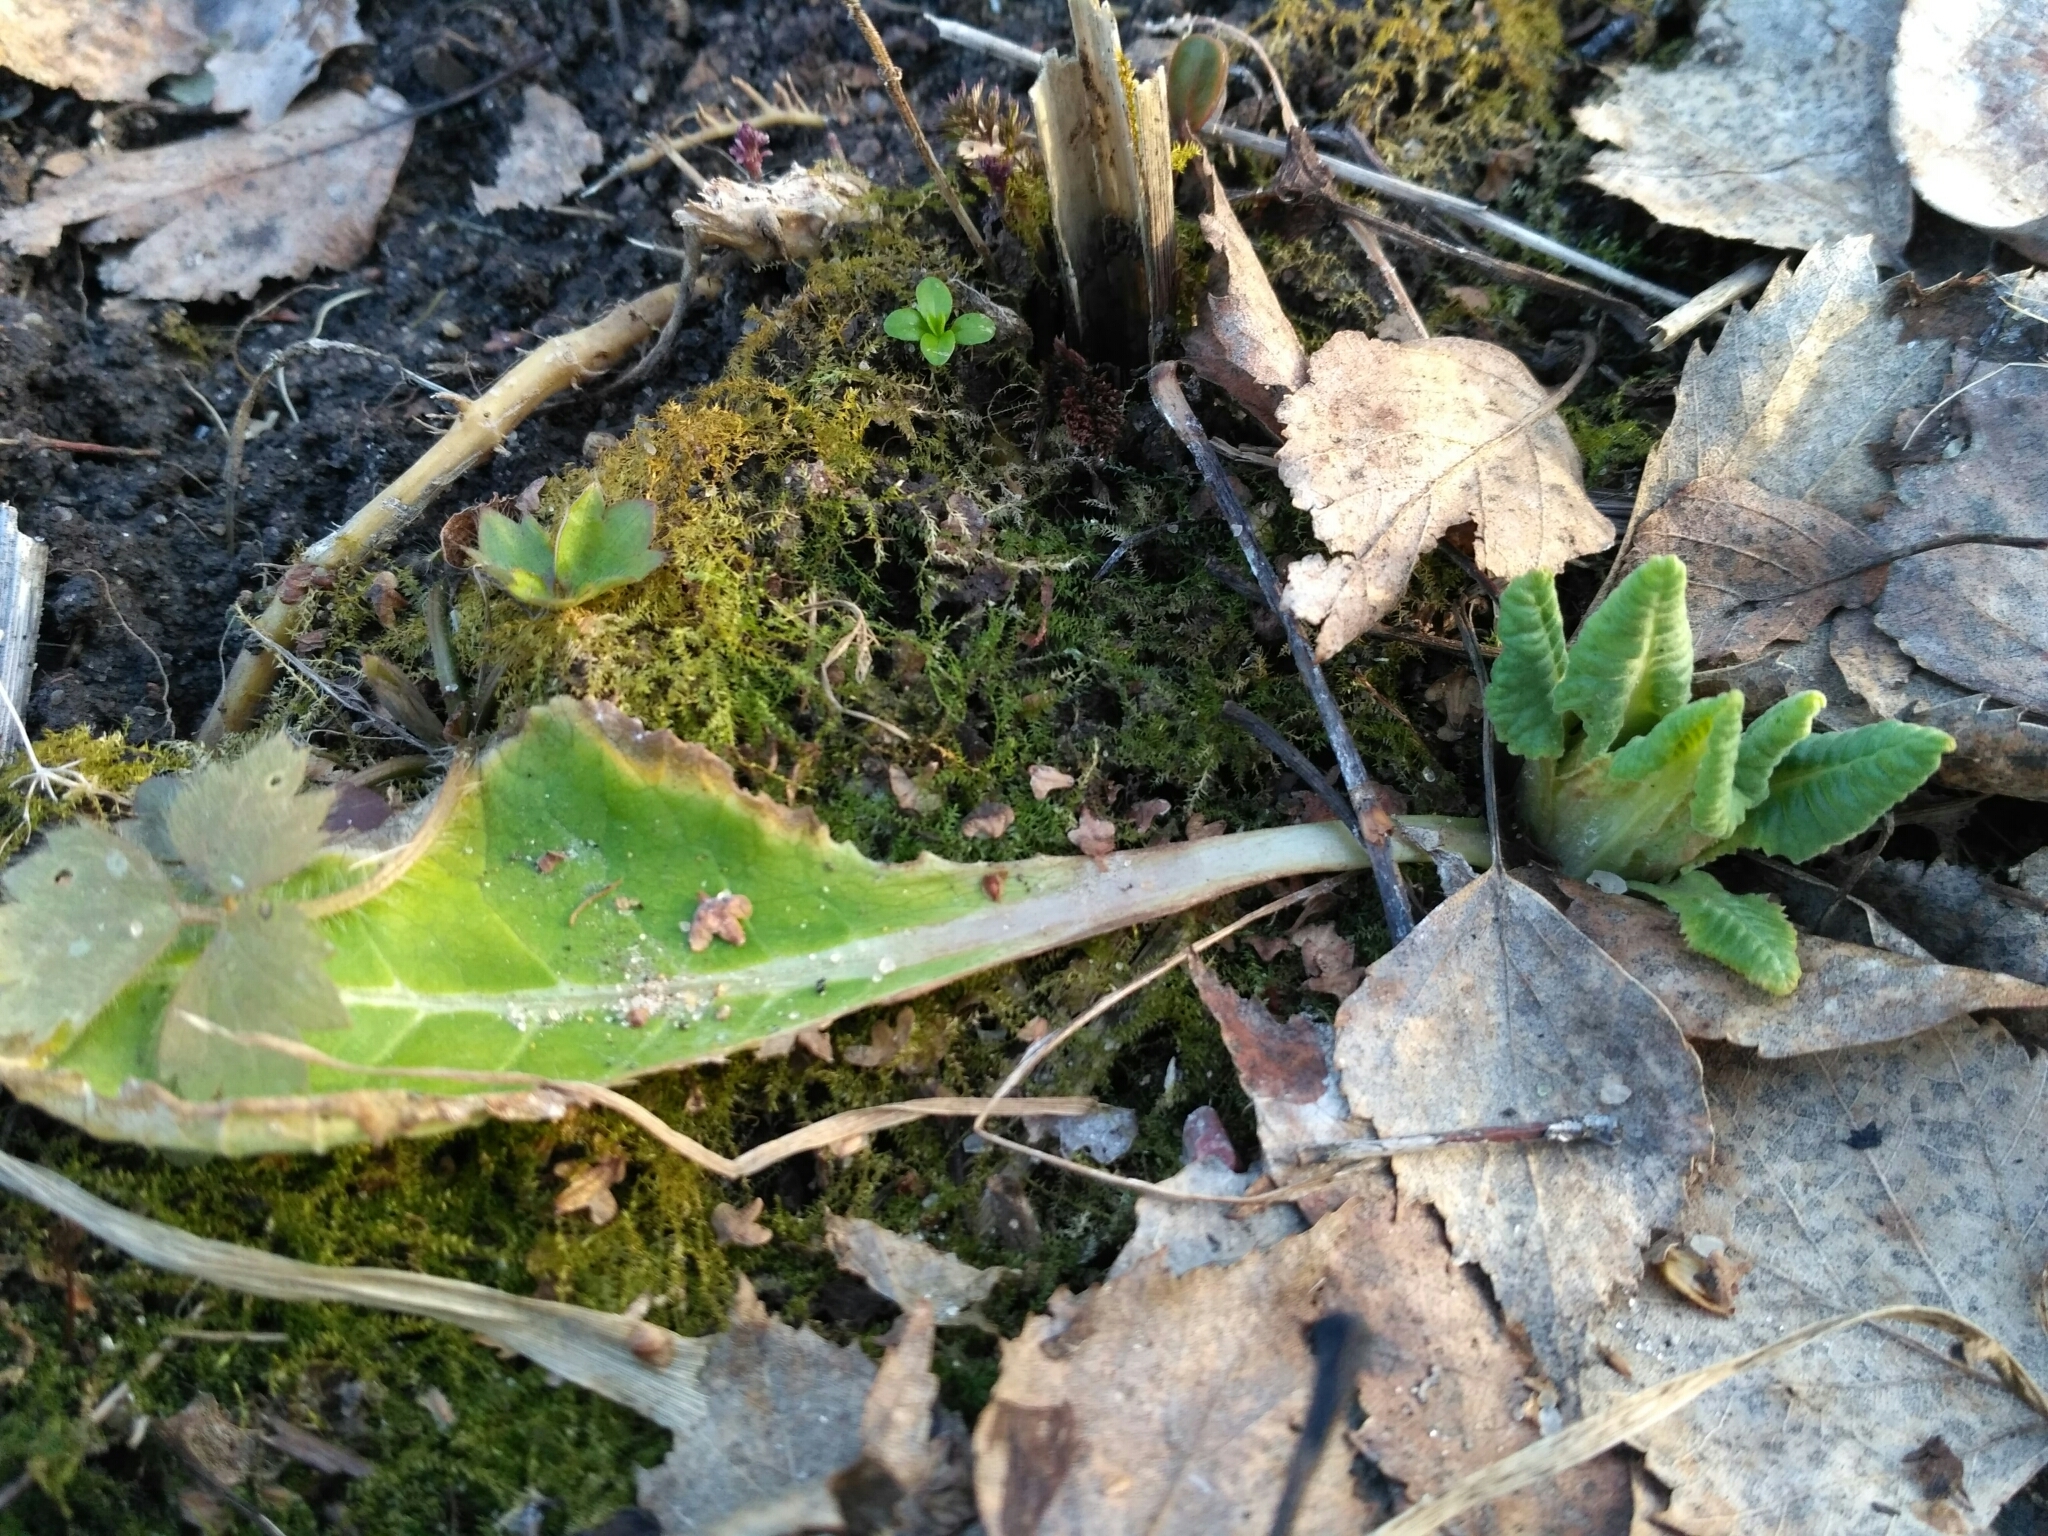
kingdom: Plantae
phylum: Tracheophyta
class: Magnoliopsida
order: Ericales
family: Primulaceae
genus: Primula
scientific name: Primula veris
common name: Cowslip
